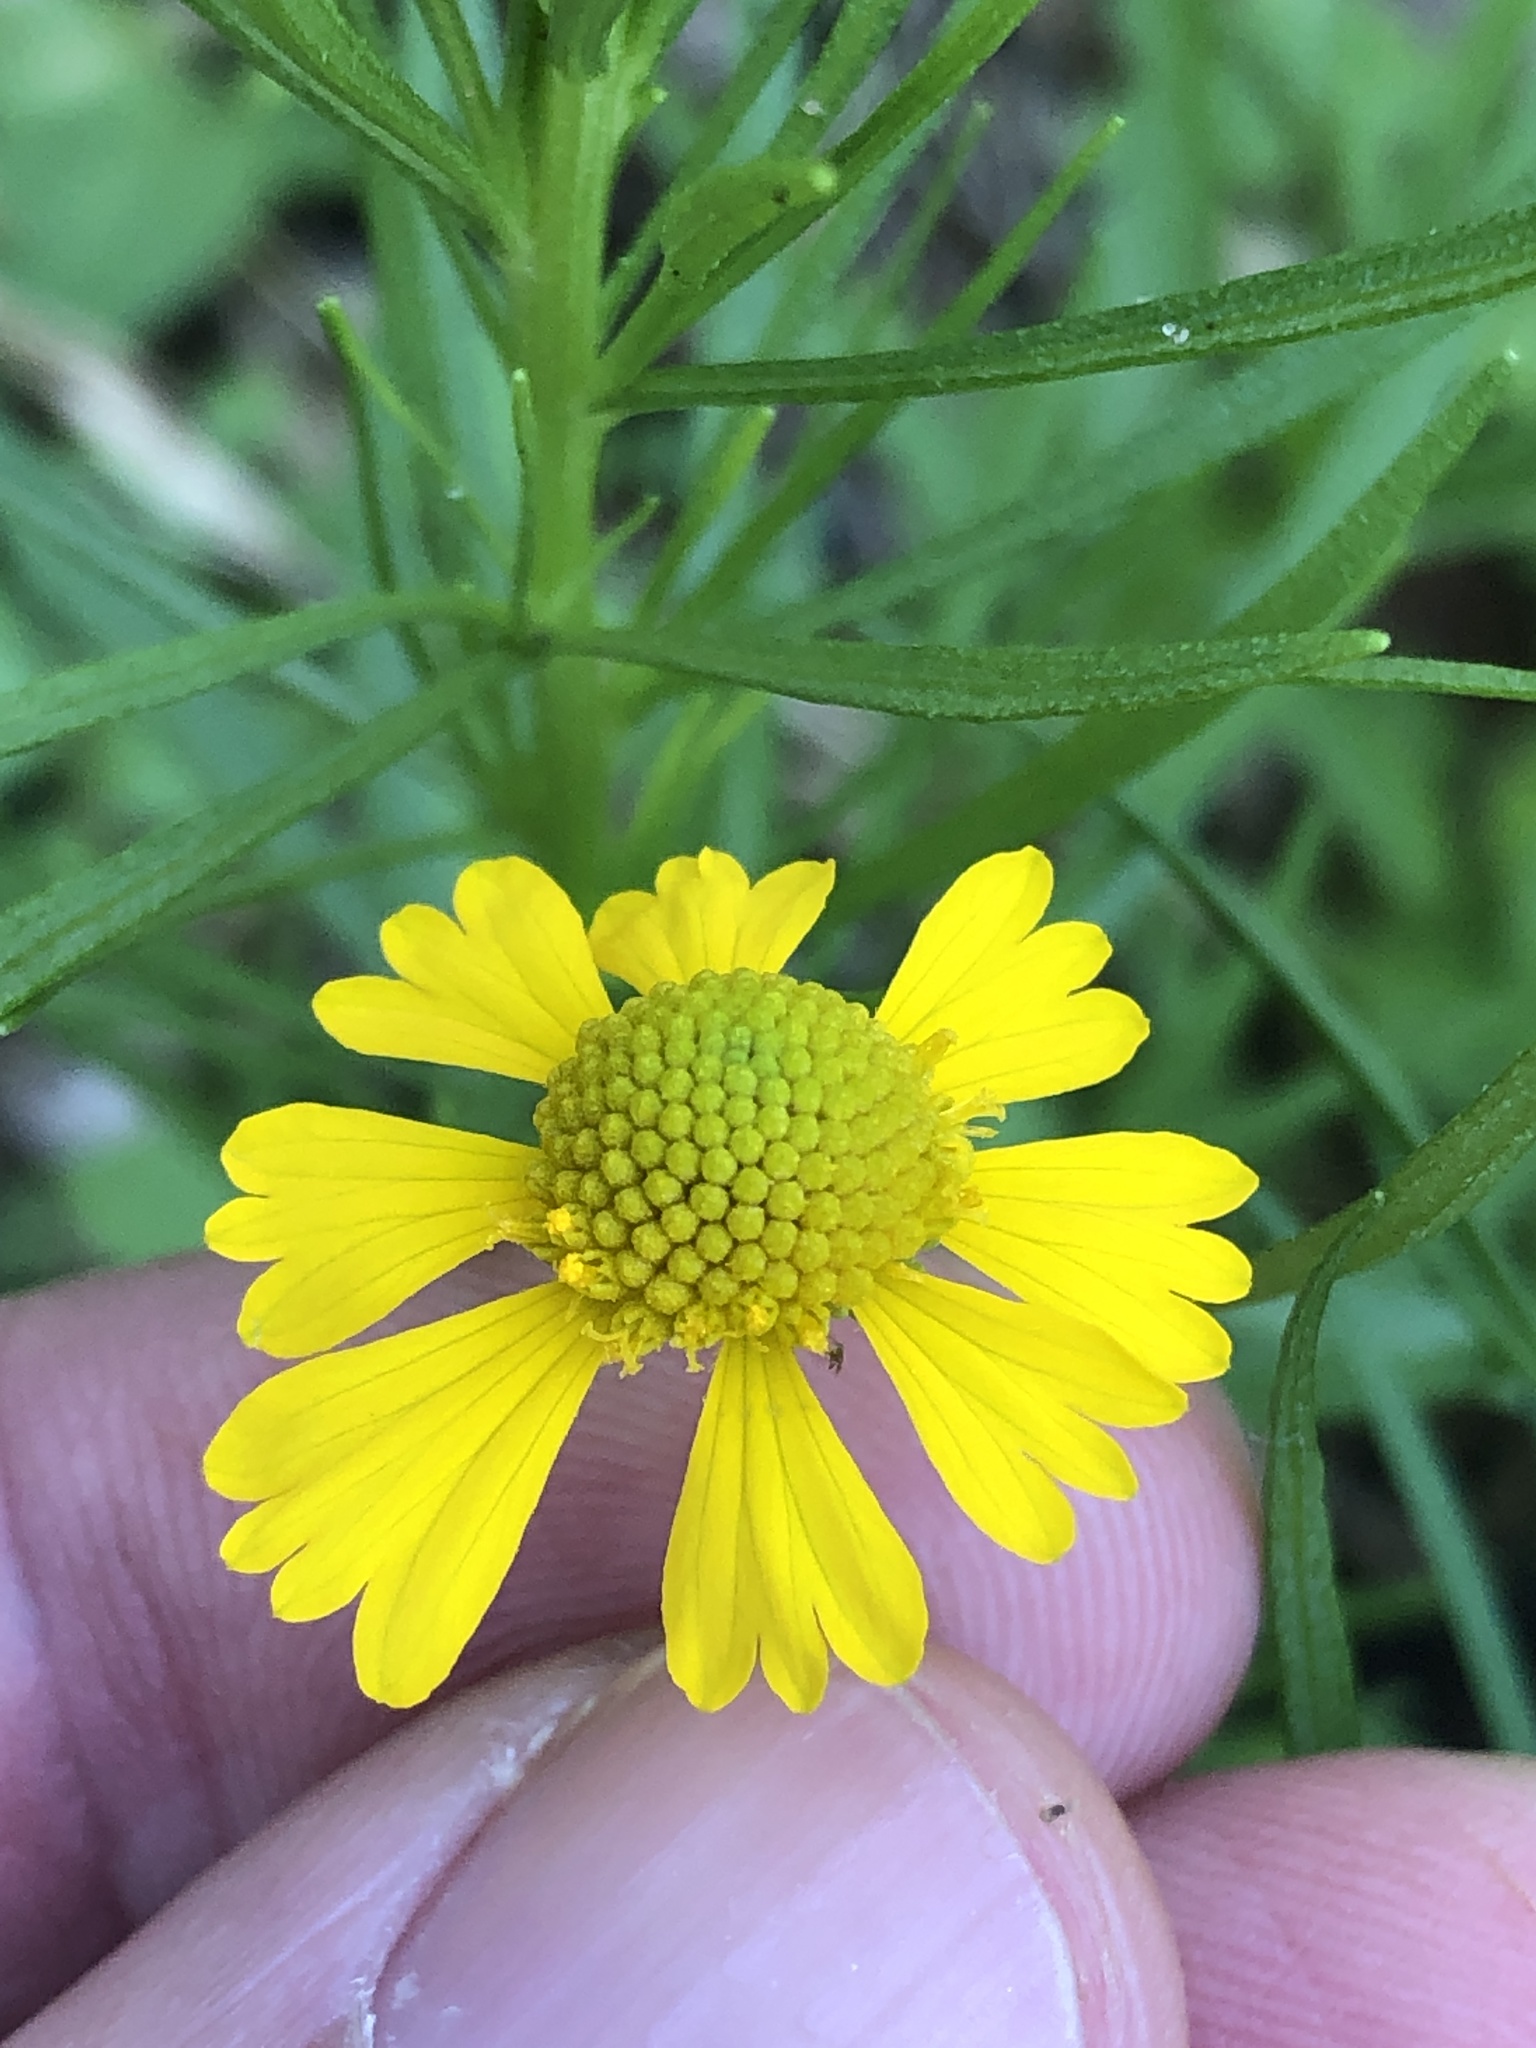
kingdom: Plantae
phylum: Tracheophyta
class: Magnoliopsida
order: Asterales
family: Asteraceae
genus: Helenium
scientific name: Helenium amarum
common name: Bitter sneezeweed
